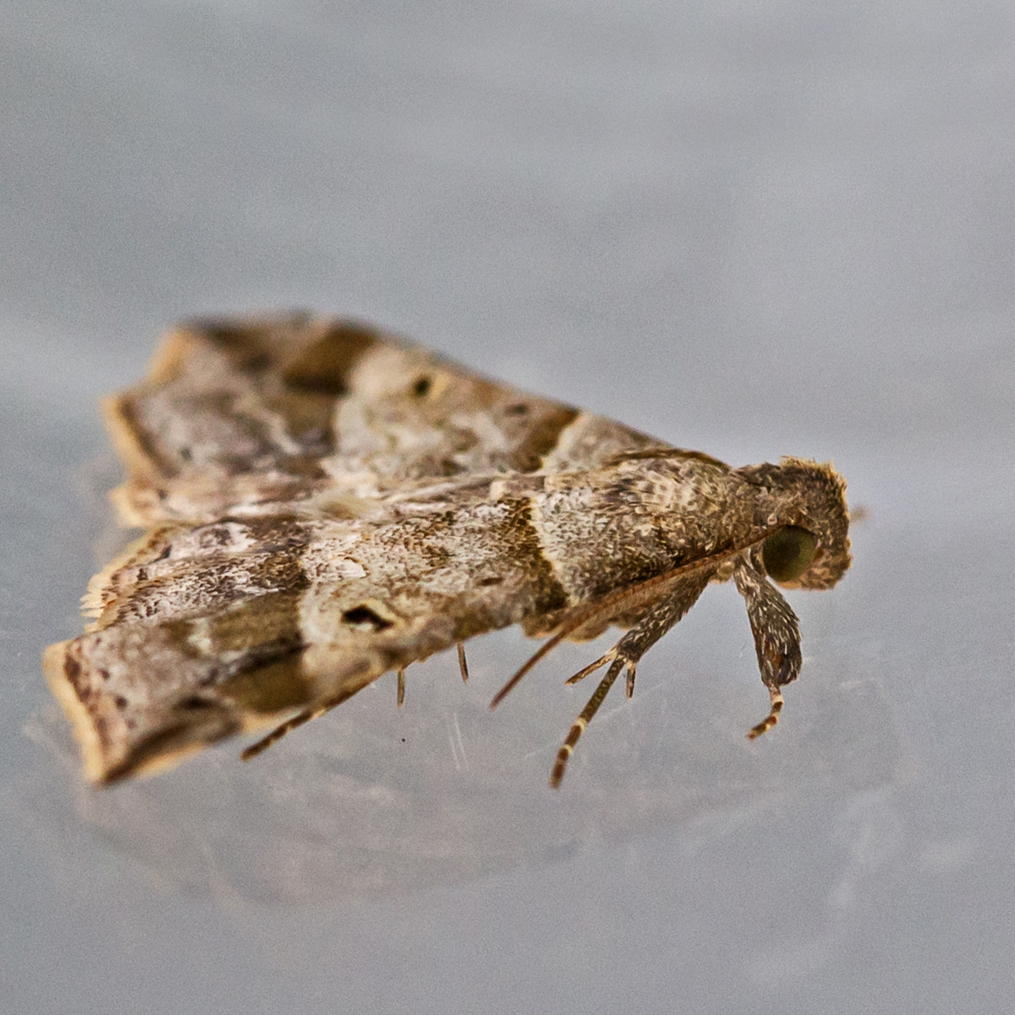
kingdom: Animalia
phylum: Arthropoda
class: Insecta
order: Lepidoptera
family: Erebidae
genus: Phaeolita
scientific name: Phaeolita pyramusalis
